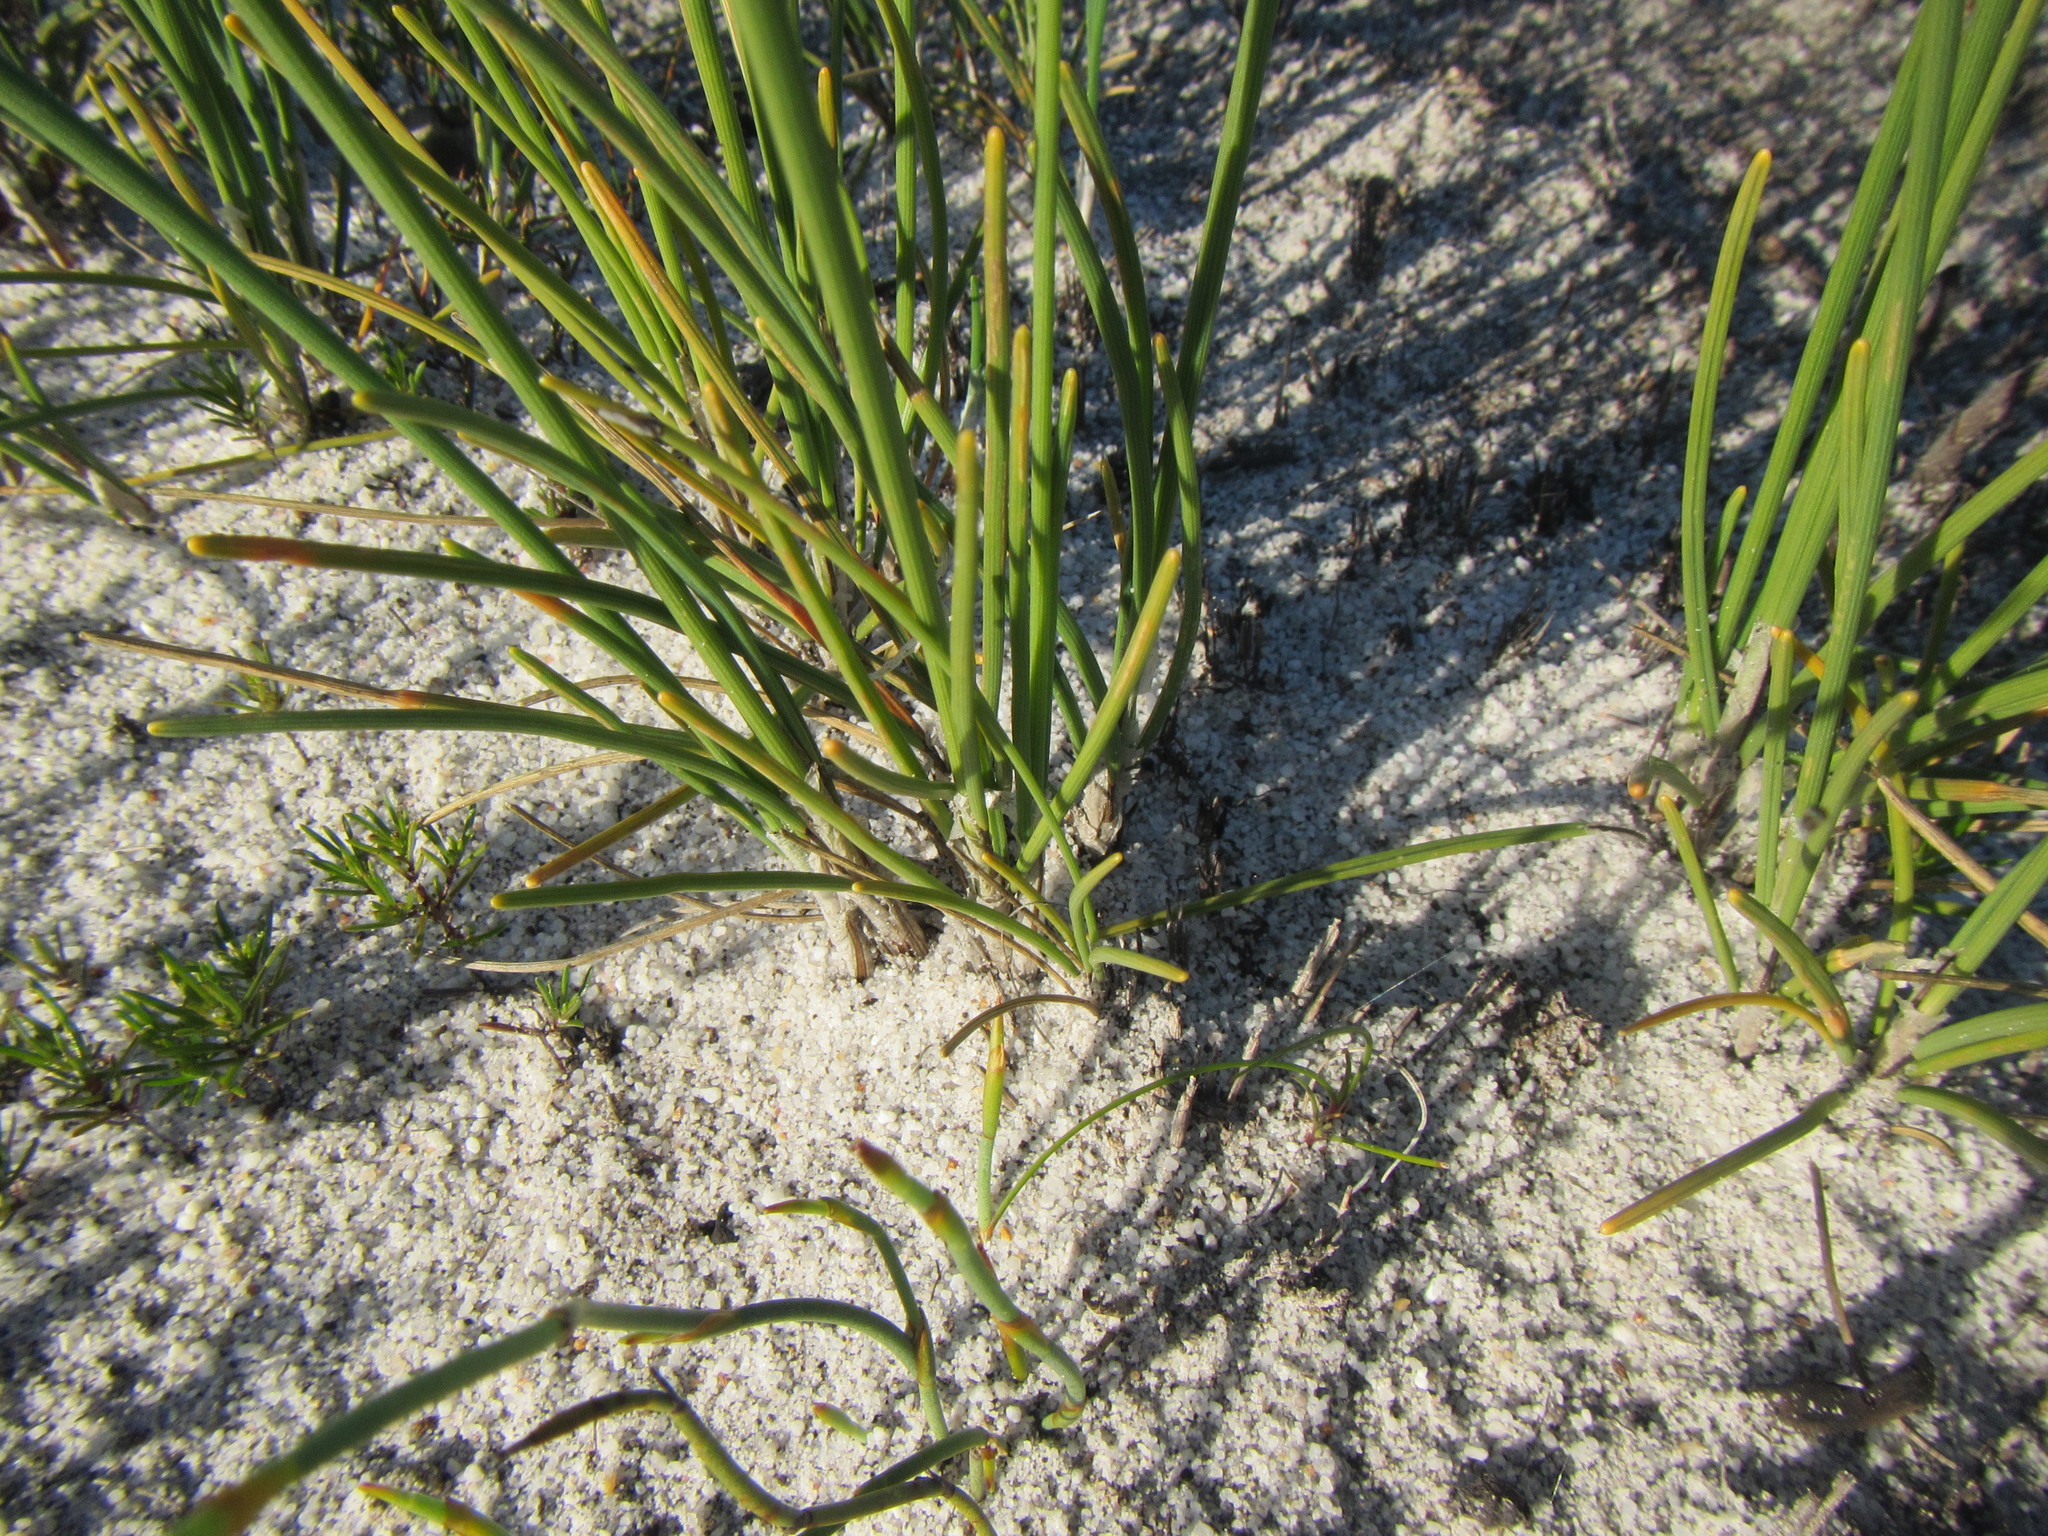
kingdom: Plantae
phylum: Tracheophyta
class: Liliopsida
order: Poales
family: Cyperaceae
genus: Ficinia
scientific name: Ficinia pinguior
